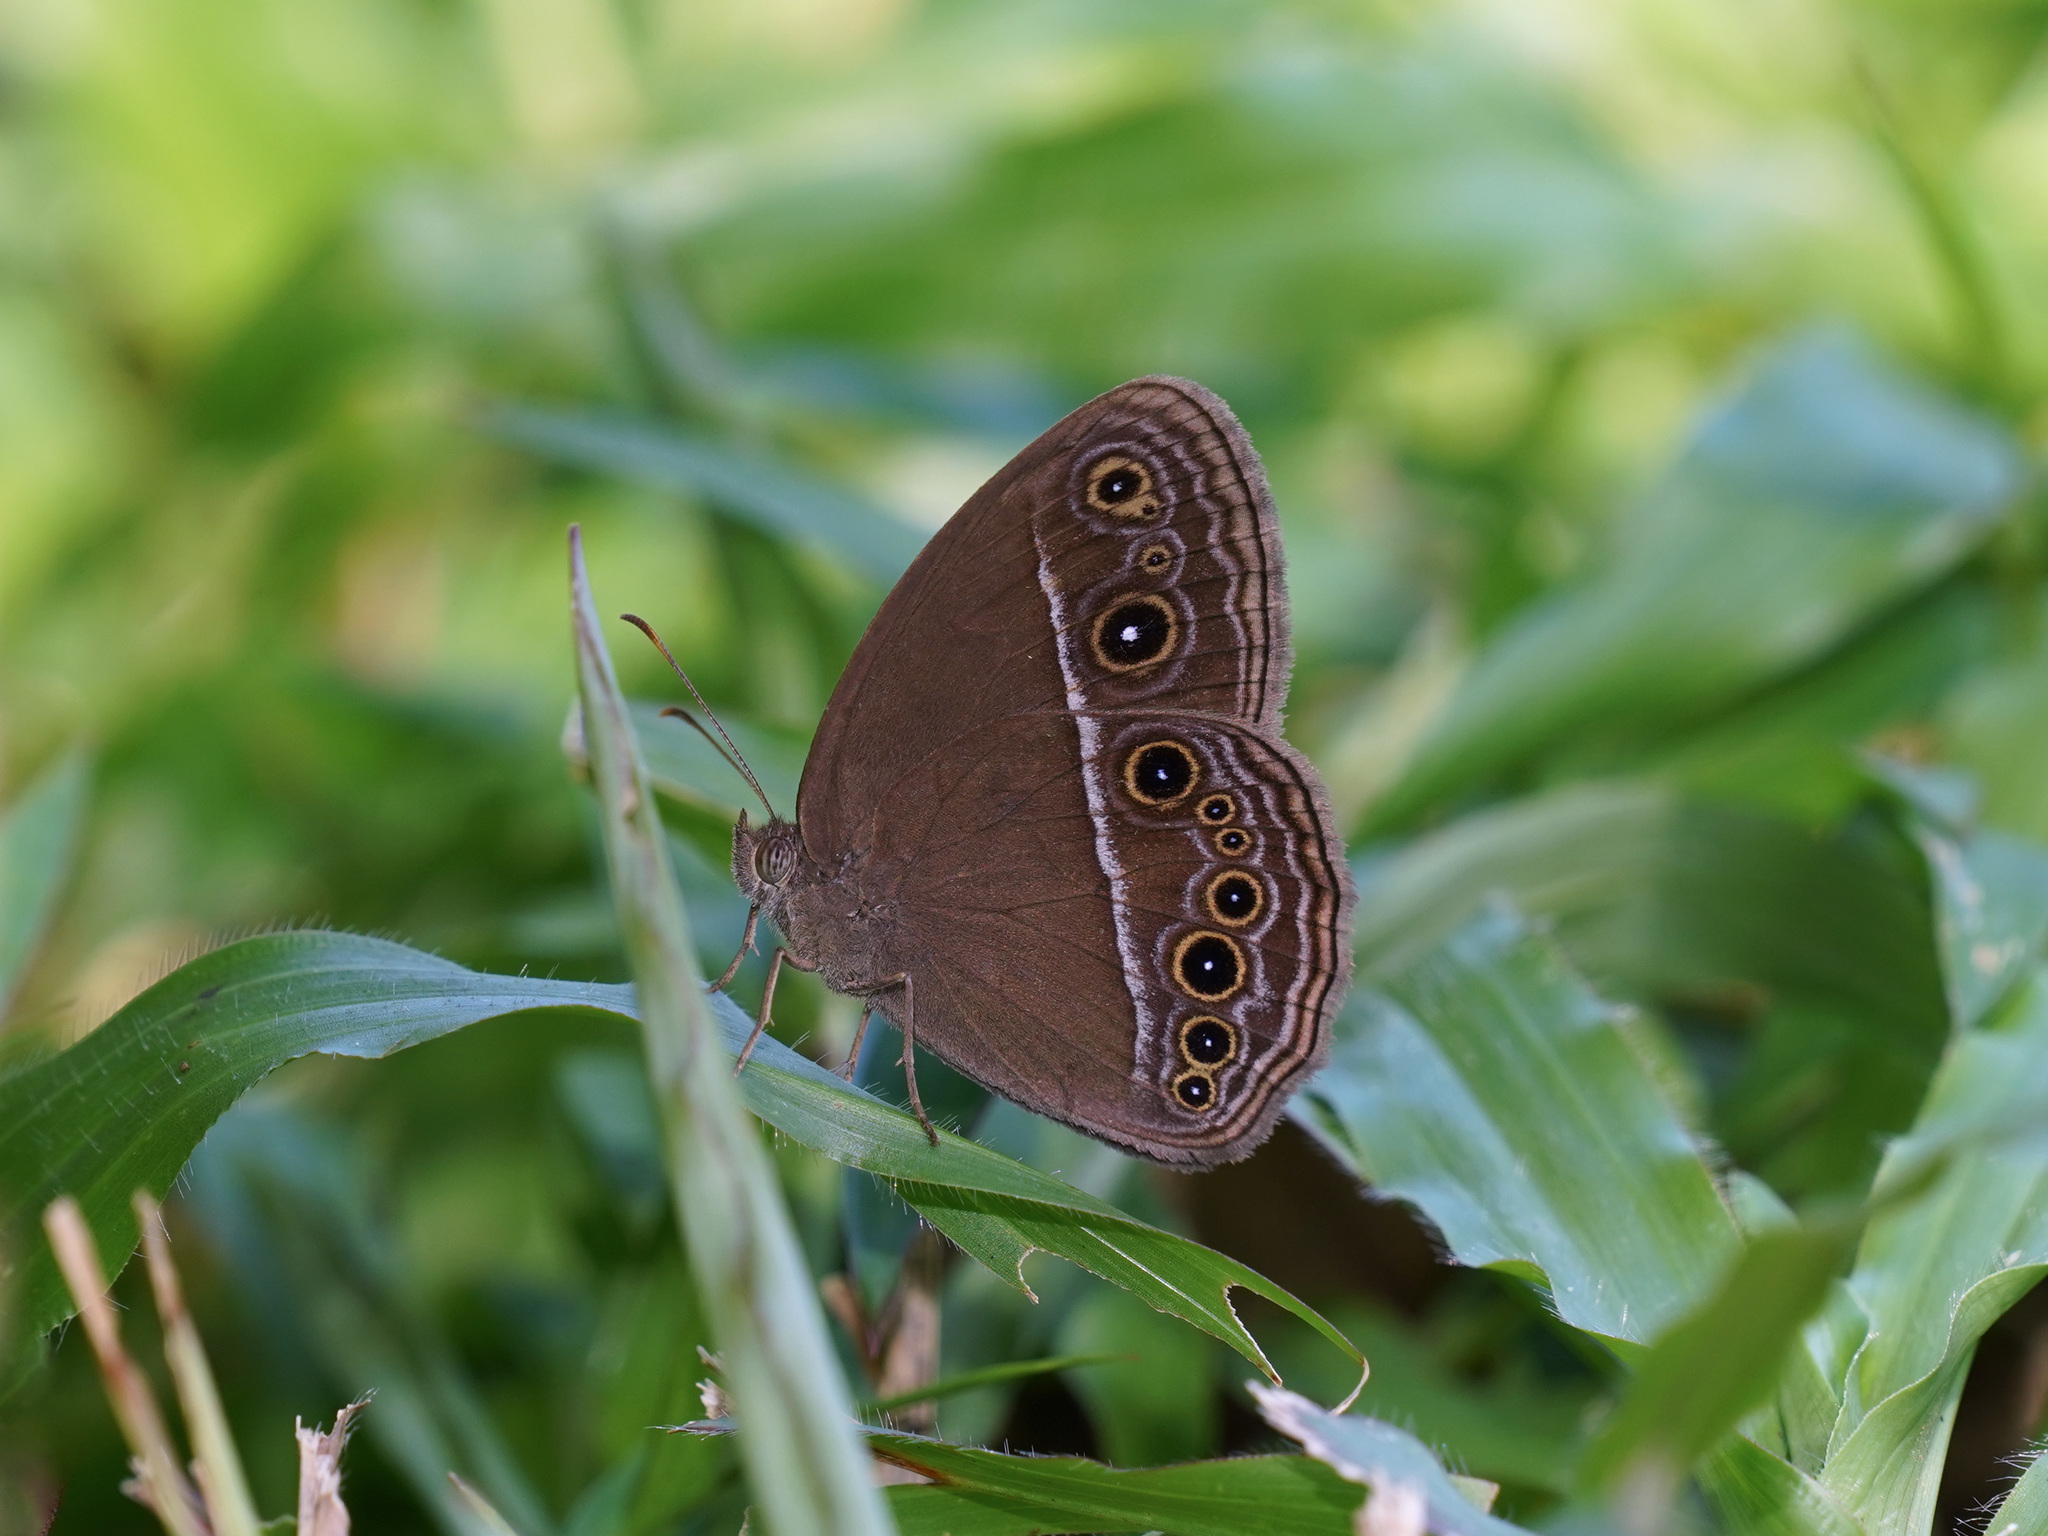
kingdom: Animalia
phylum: Arthropoda
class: Insecta
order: Lepidoptera
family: Nymphalidae
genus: Mycalesis
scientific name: Mycalesis perseus
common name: Dingy bushbrown
